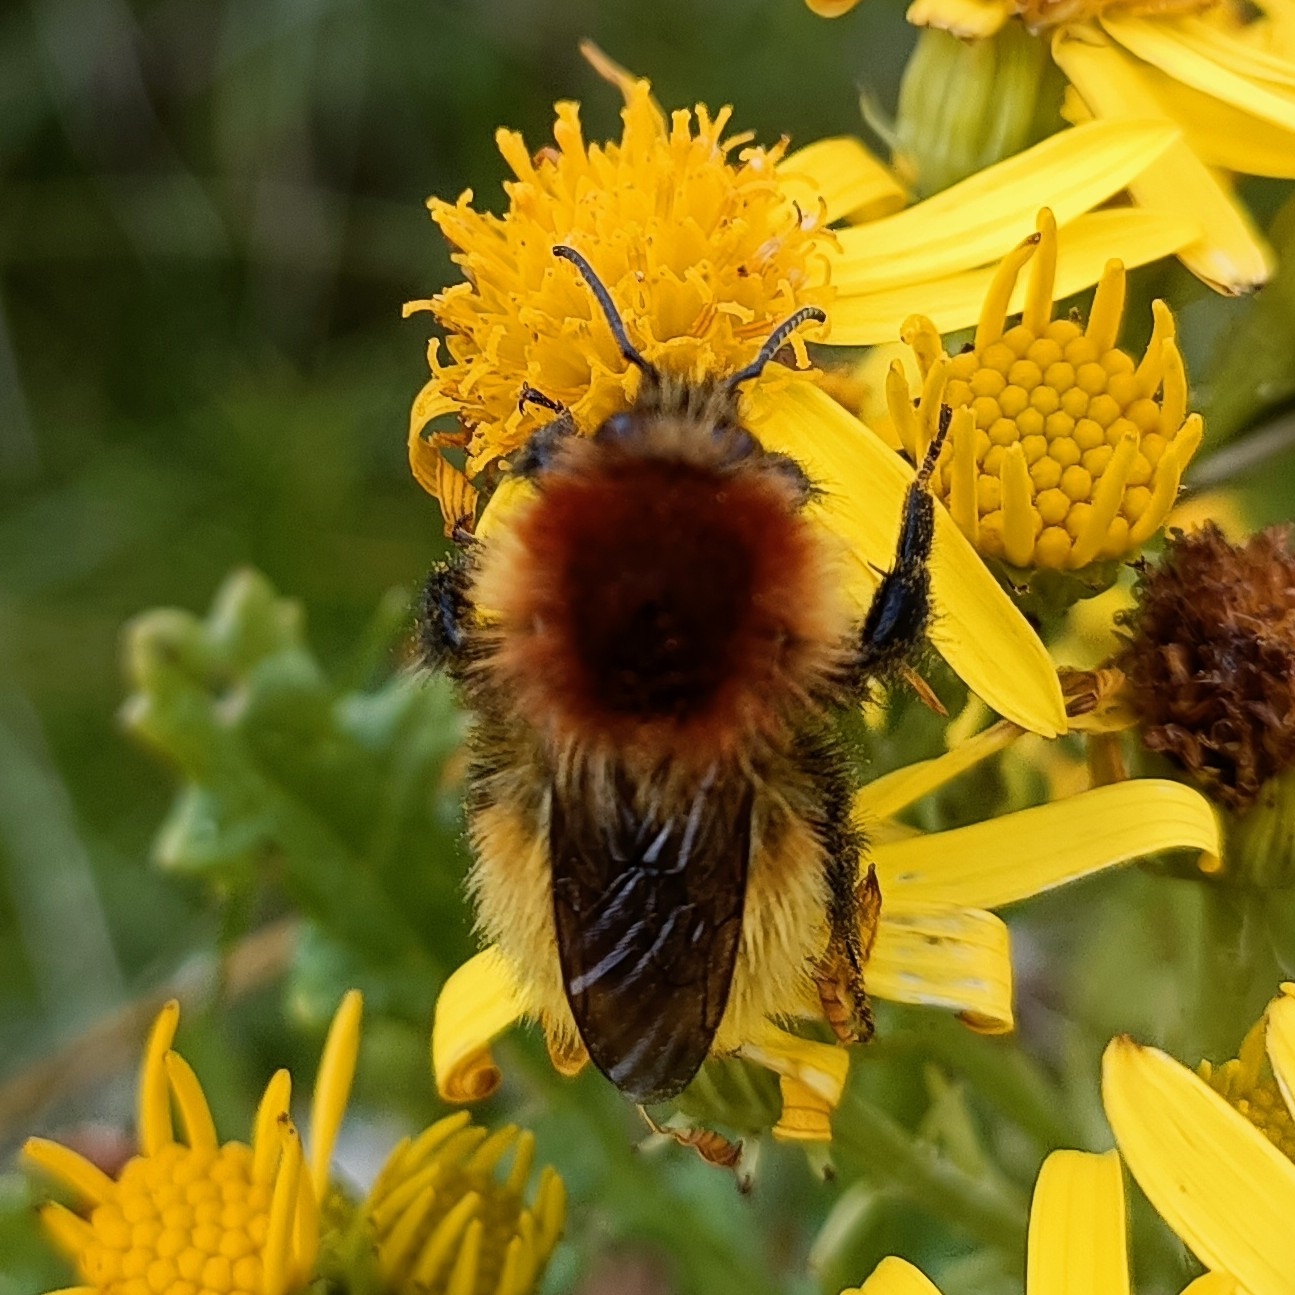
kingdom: Animalia
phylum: Arthropoda
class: Insecta
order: Hymenoptera
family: Apidae
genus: Bombus
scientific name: Bombus muscorum
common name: Moss carder-bee
